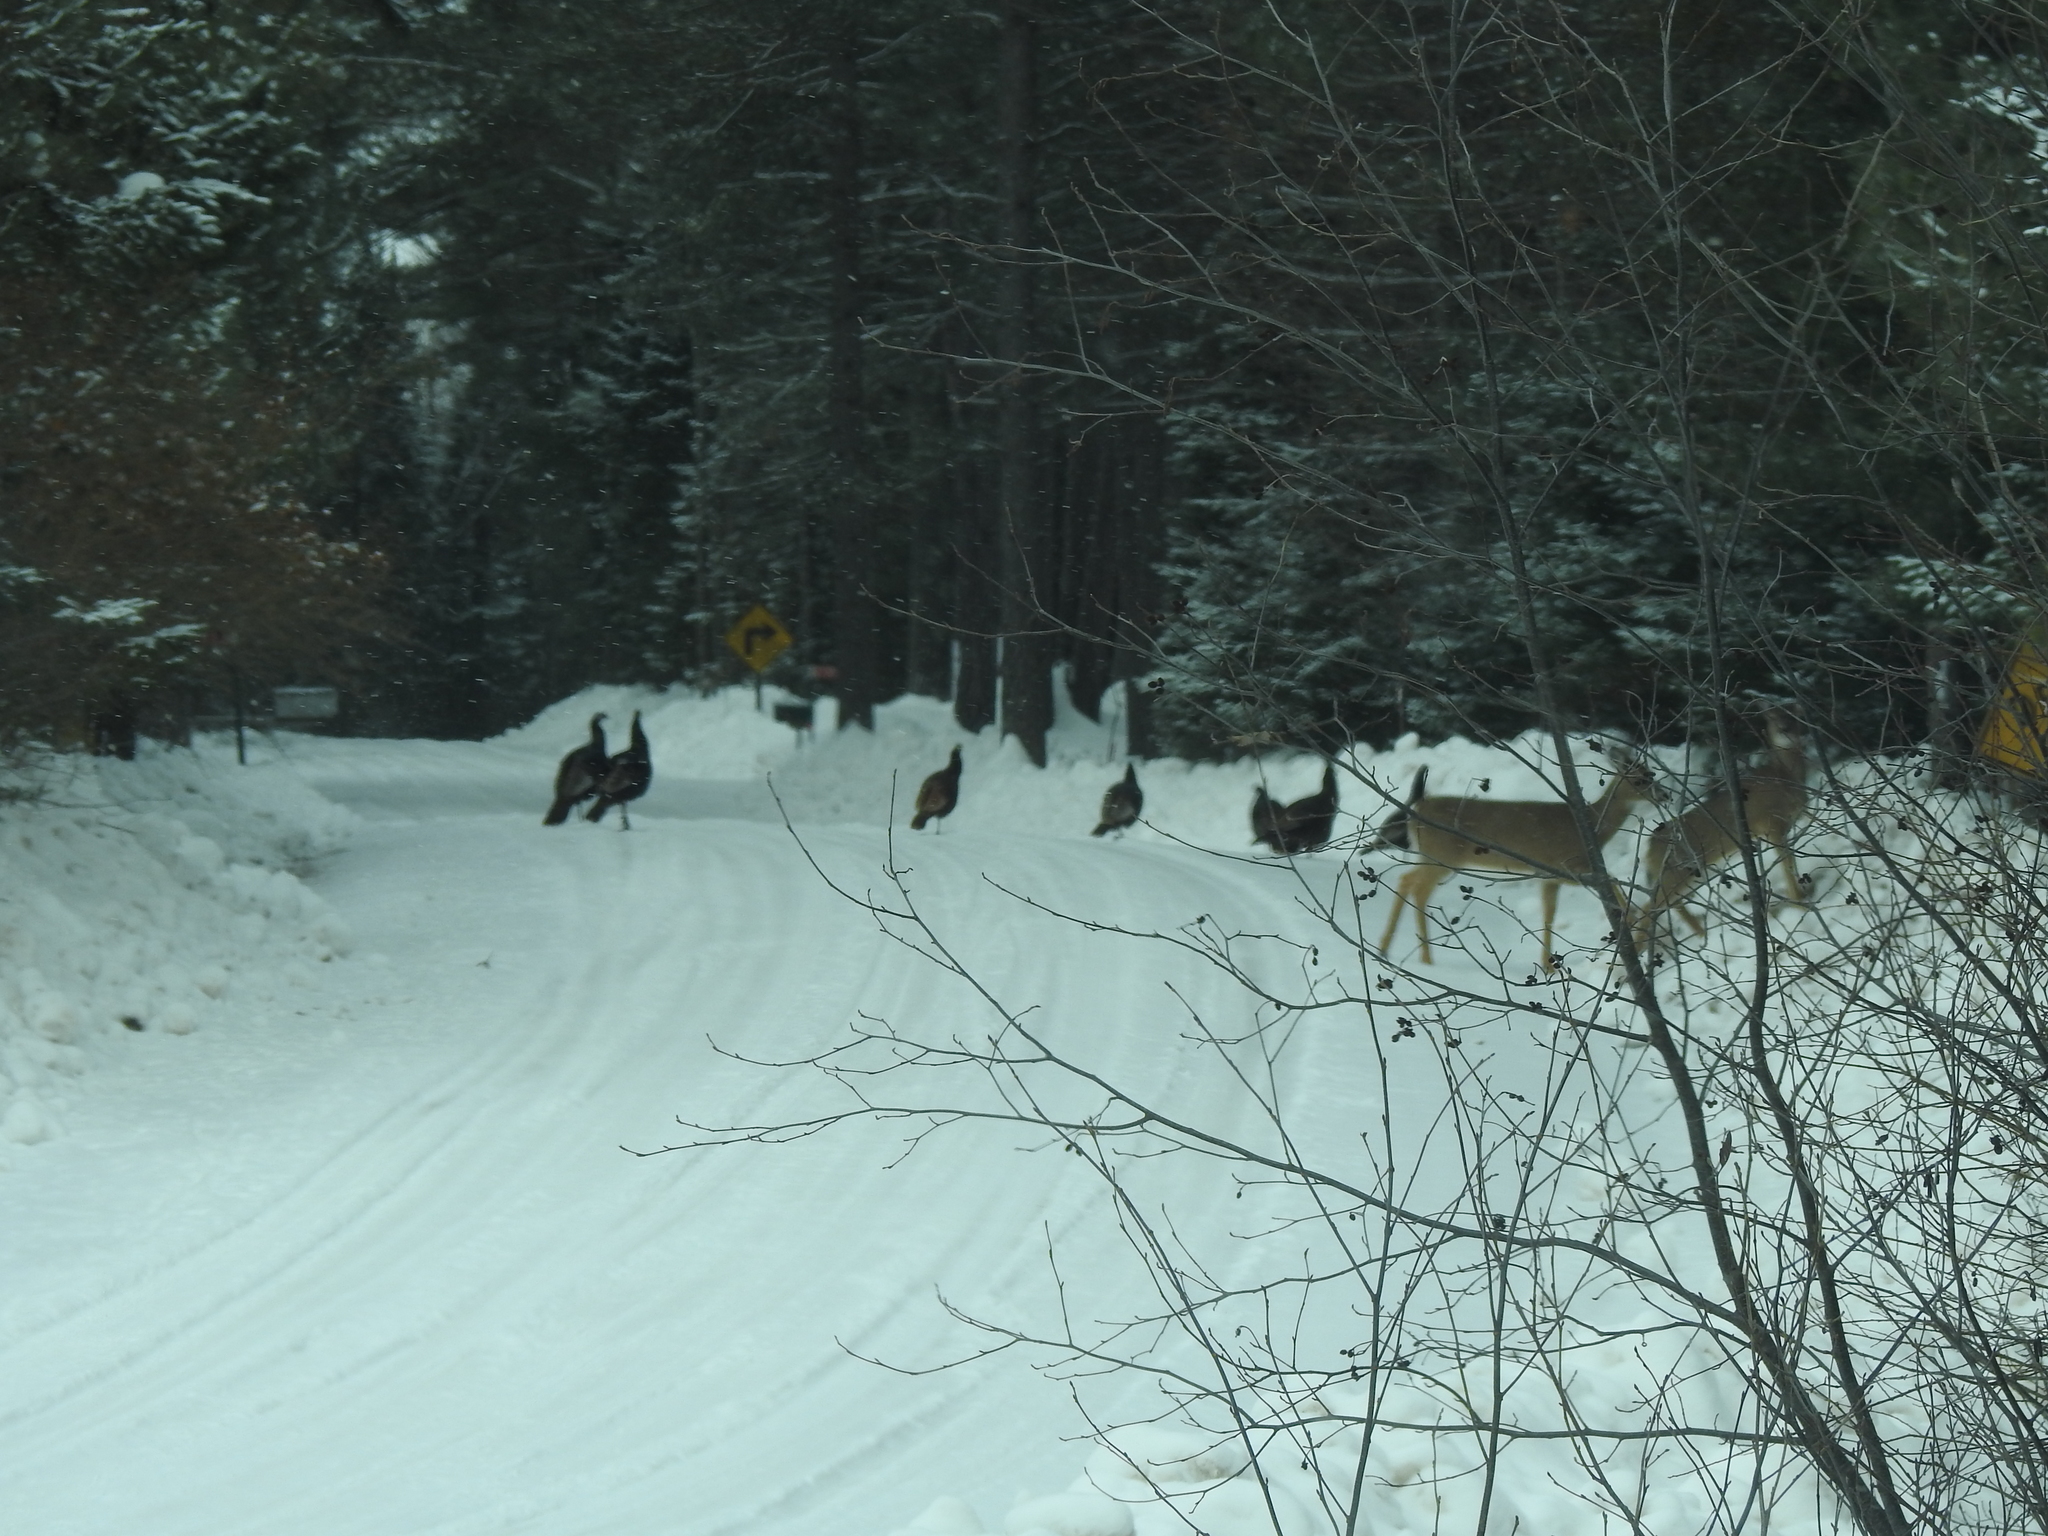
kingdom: Animalia
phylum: Chordata
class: Aves
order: Galliformes
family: Phasianidae
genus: Meleagris
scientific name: Meleagris gallopavo
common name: Wild turkey
